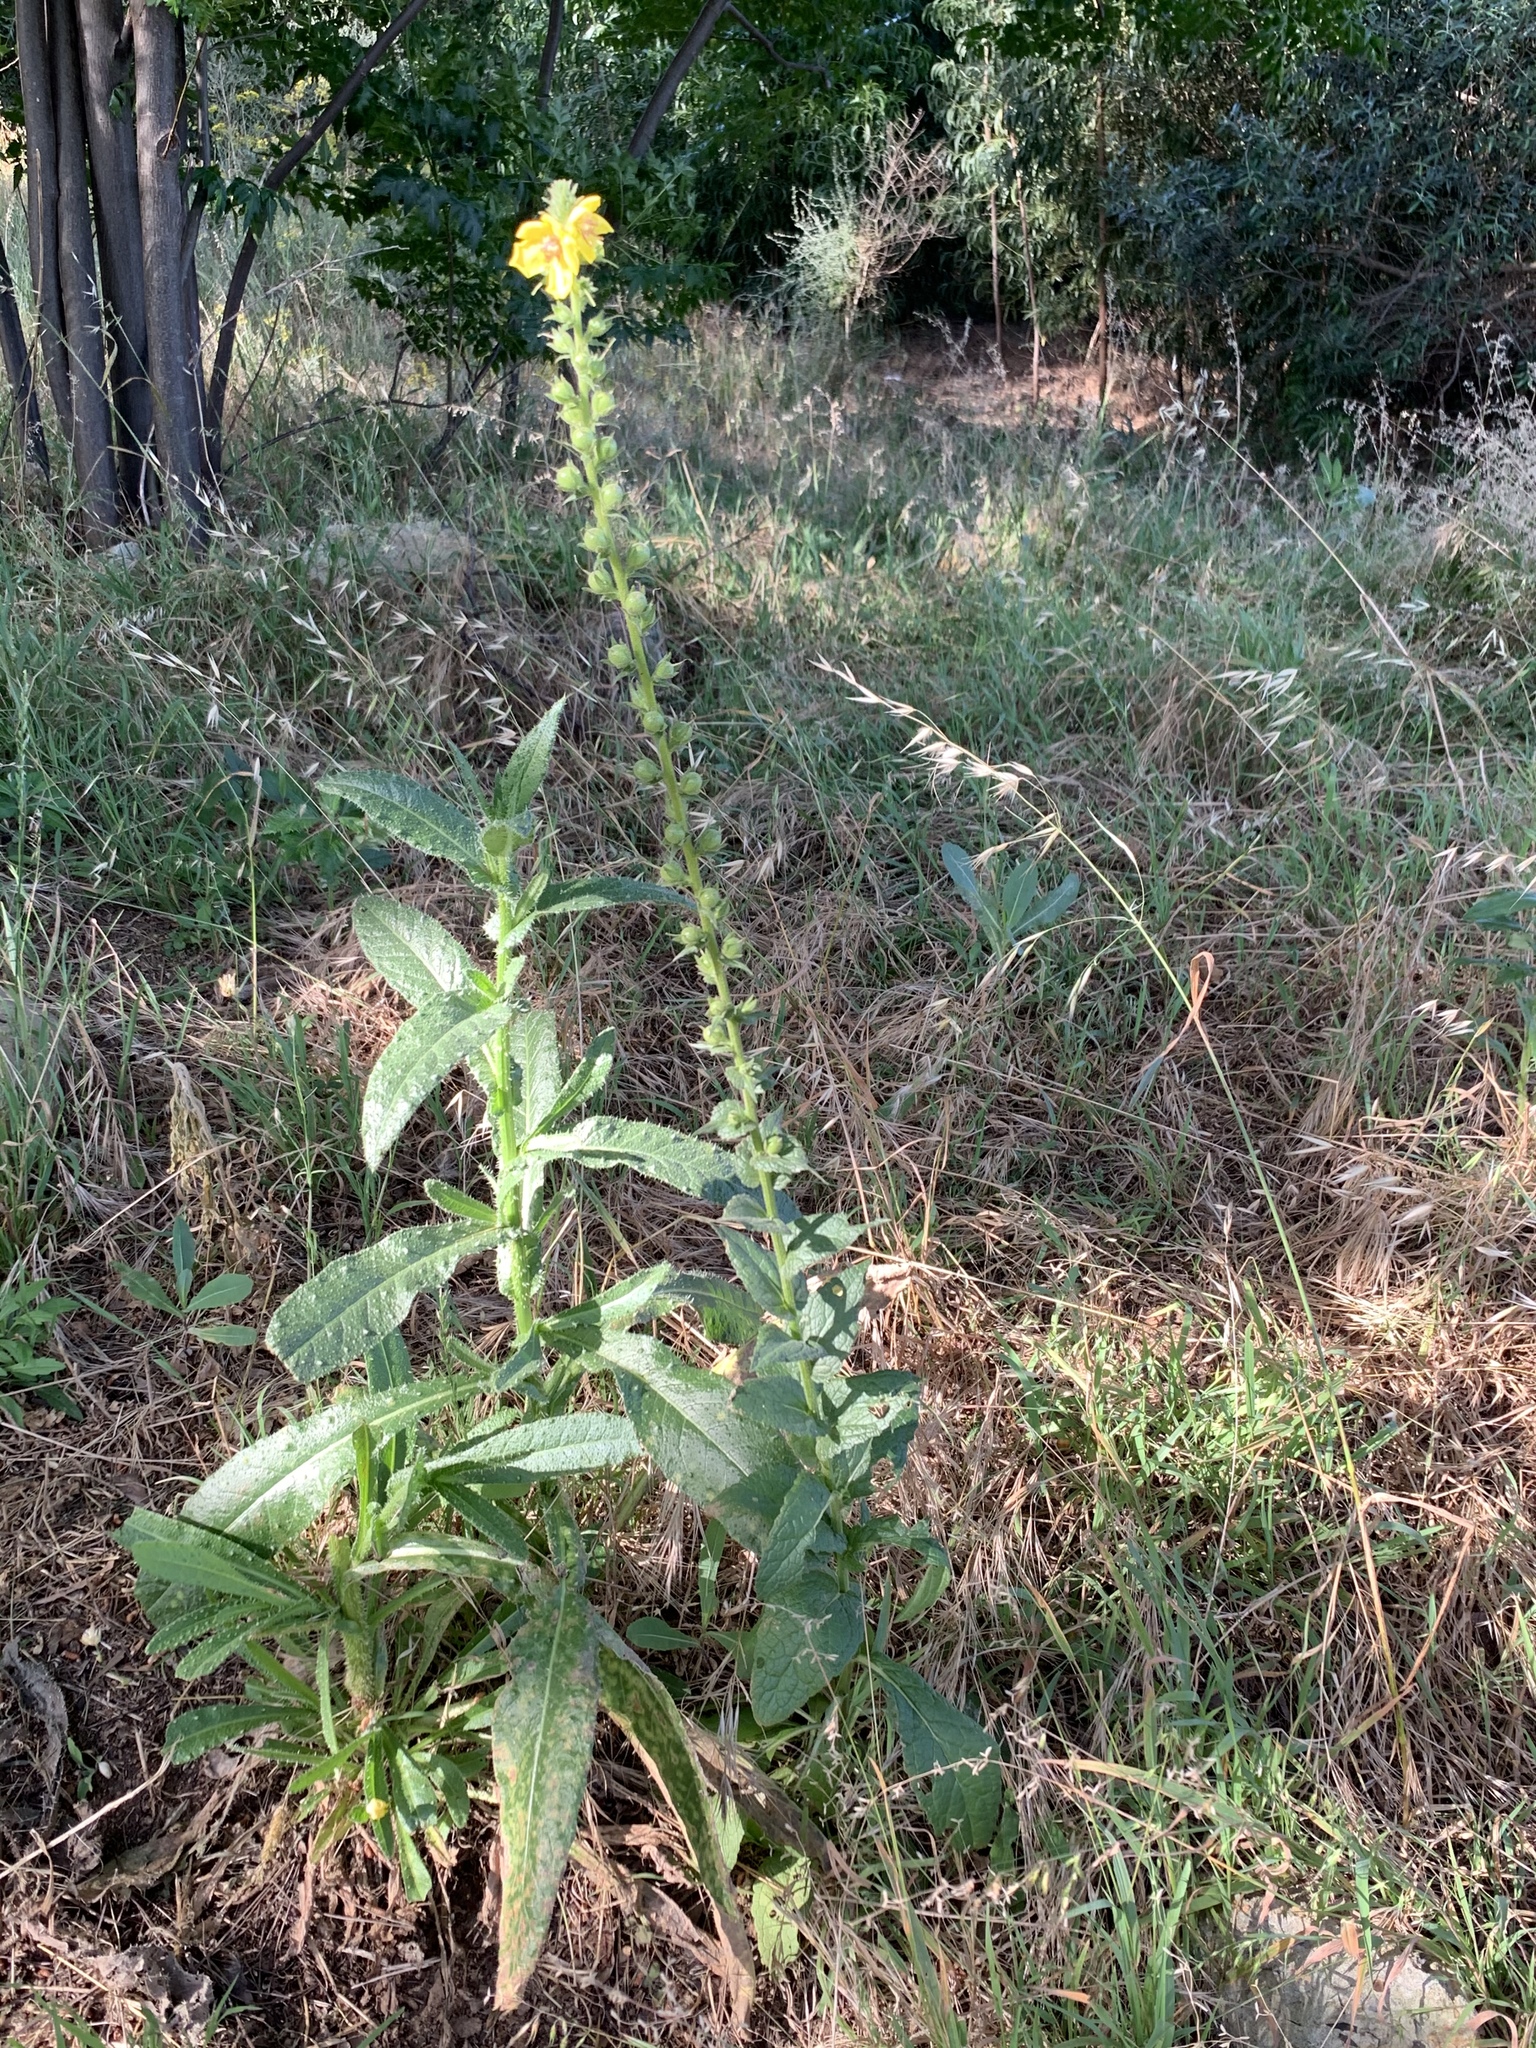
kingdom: Plantae
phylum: Tracheophyta
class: Magnoliopsida
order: Lamiales
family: Scrophulariaceae
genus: Verbascum
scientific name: Verbascum virgatum
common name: Twiggy mullein
